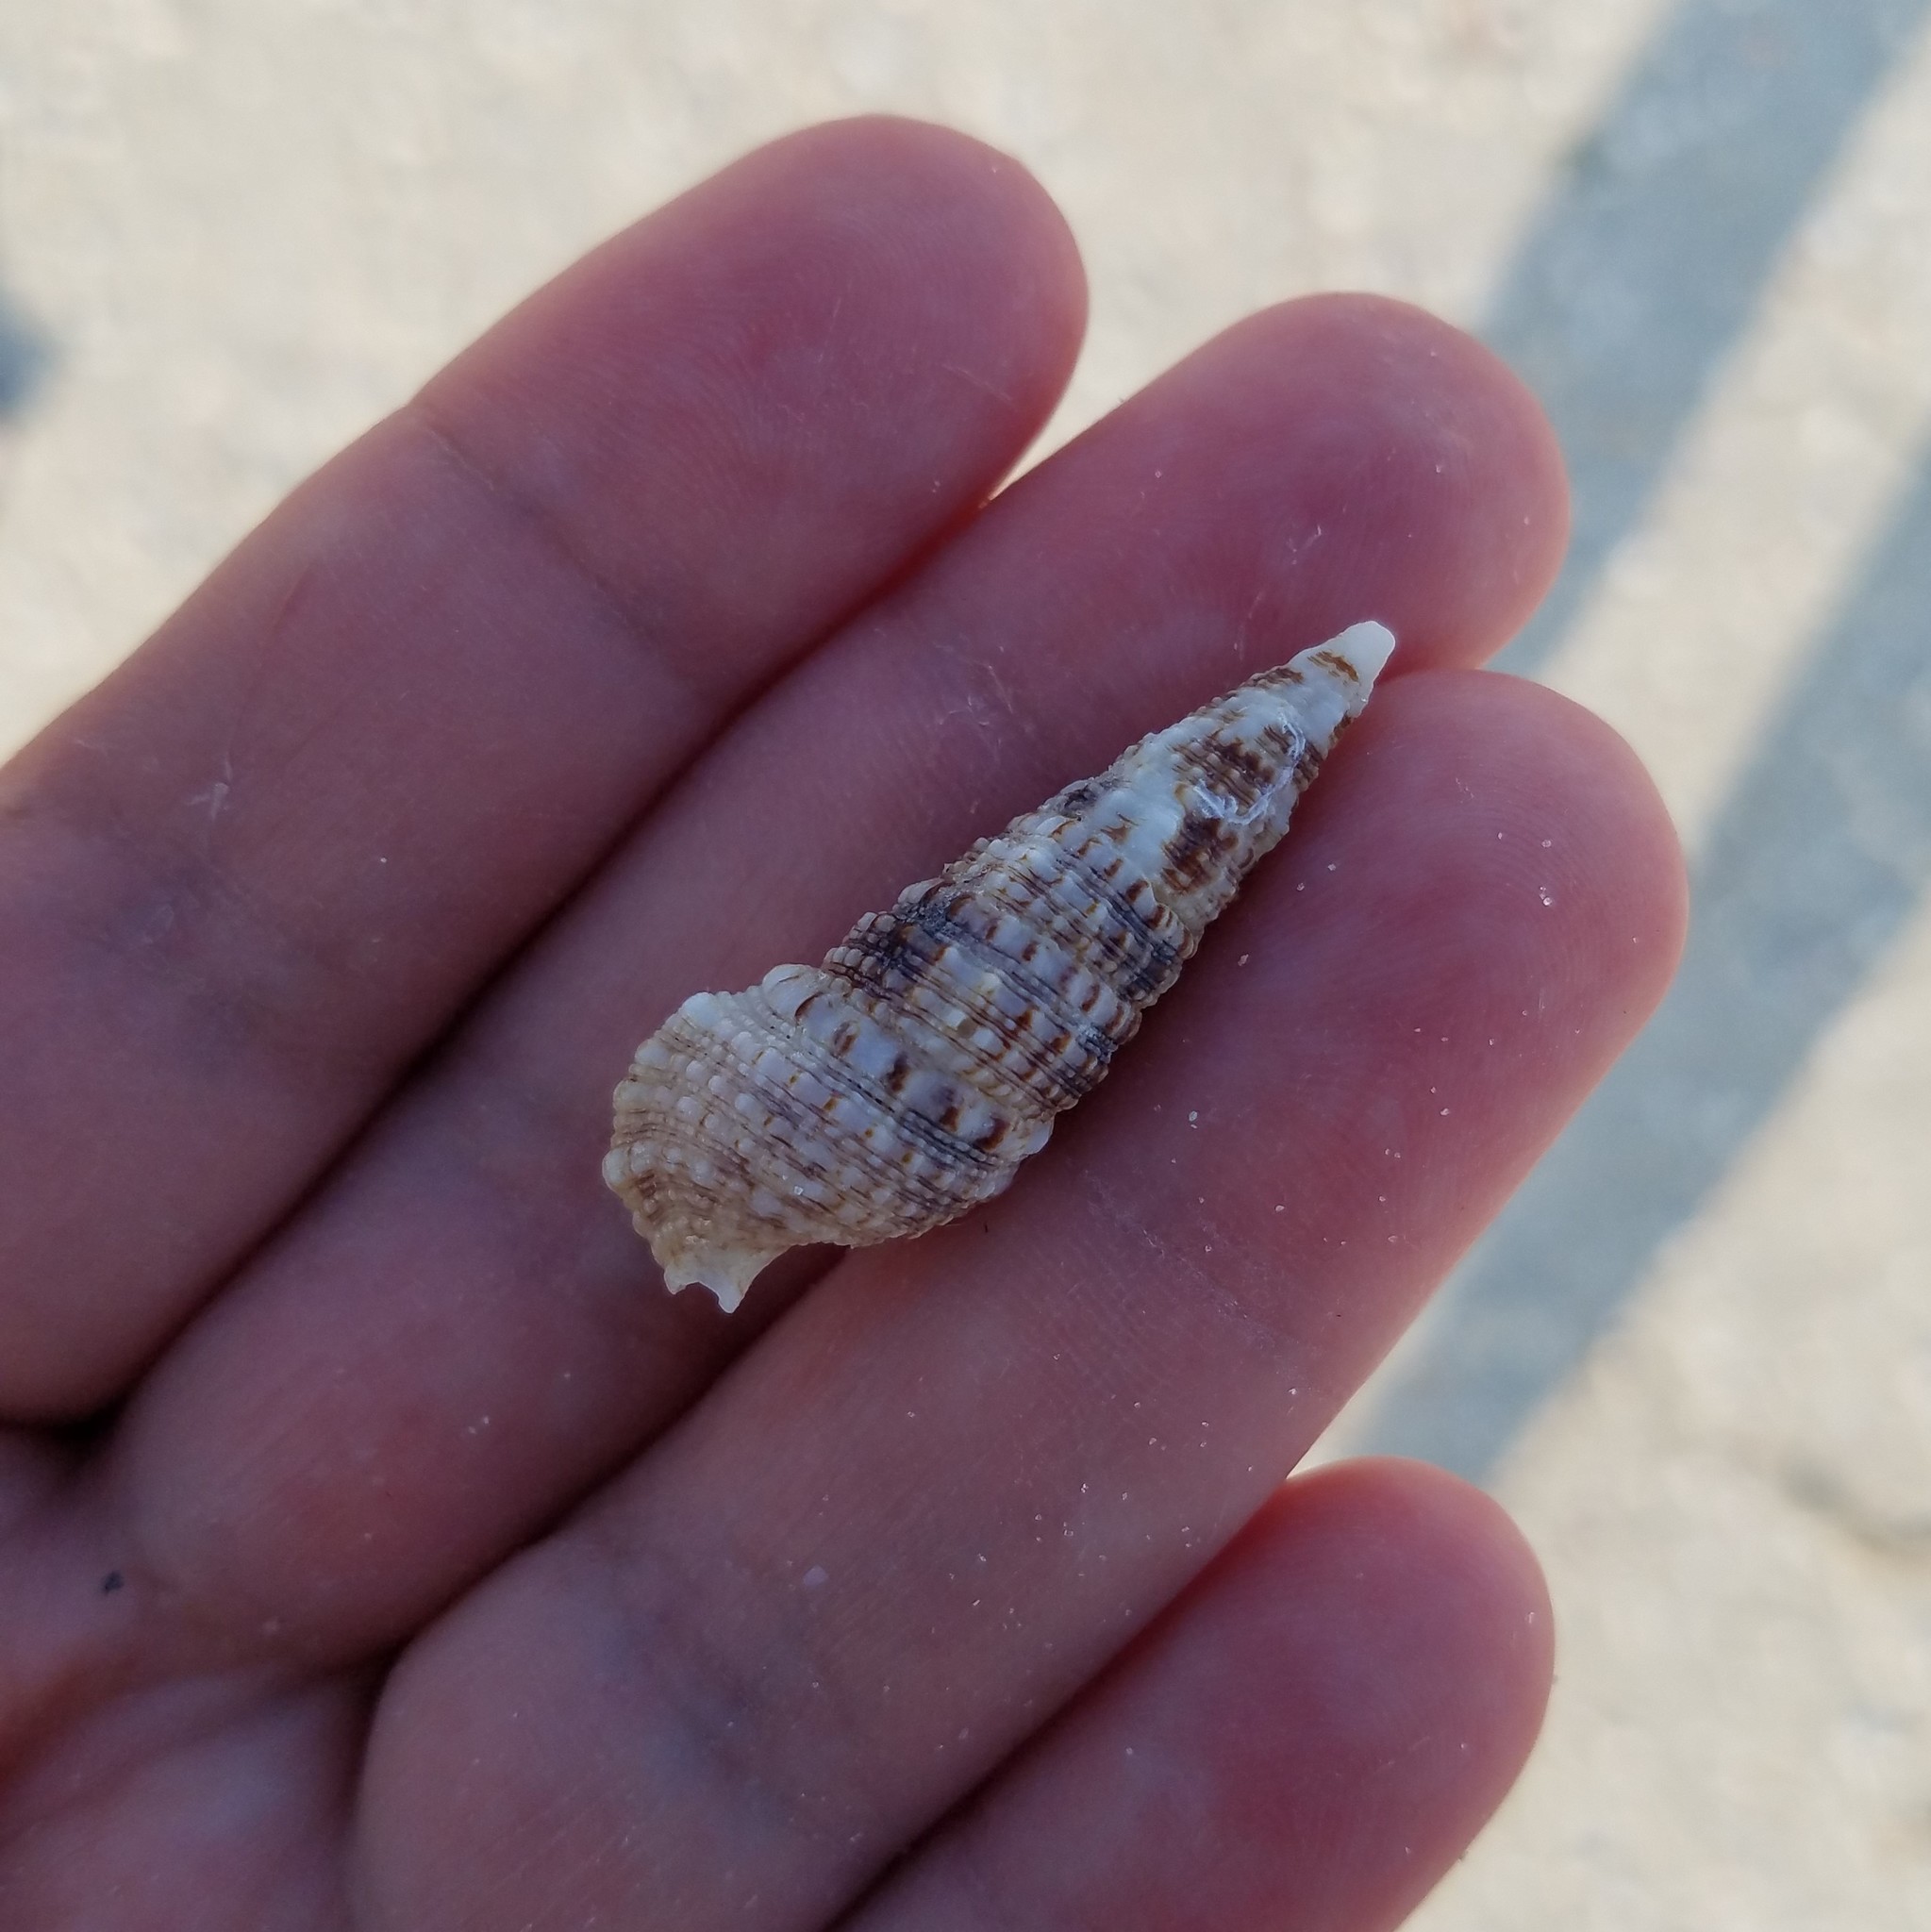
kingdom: Animalia
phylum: Mollusca
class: Gastropoda
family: Cerithiidae
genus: Cerithium
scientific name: Cerithium atratum
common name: Dark cerith
